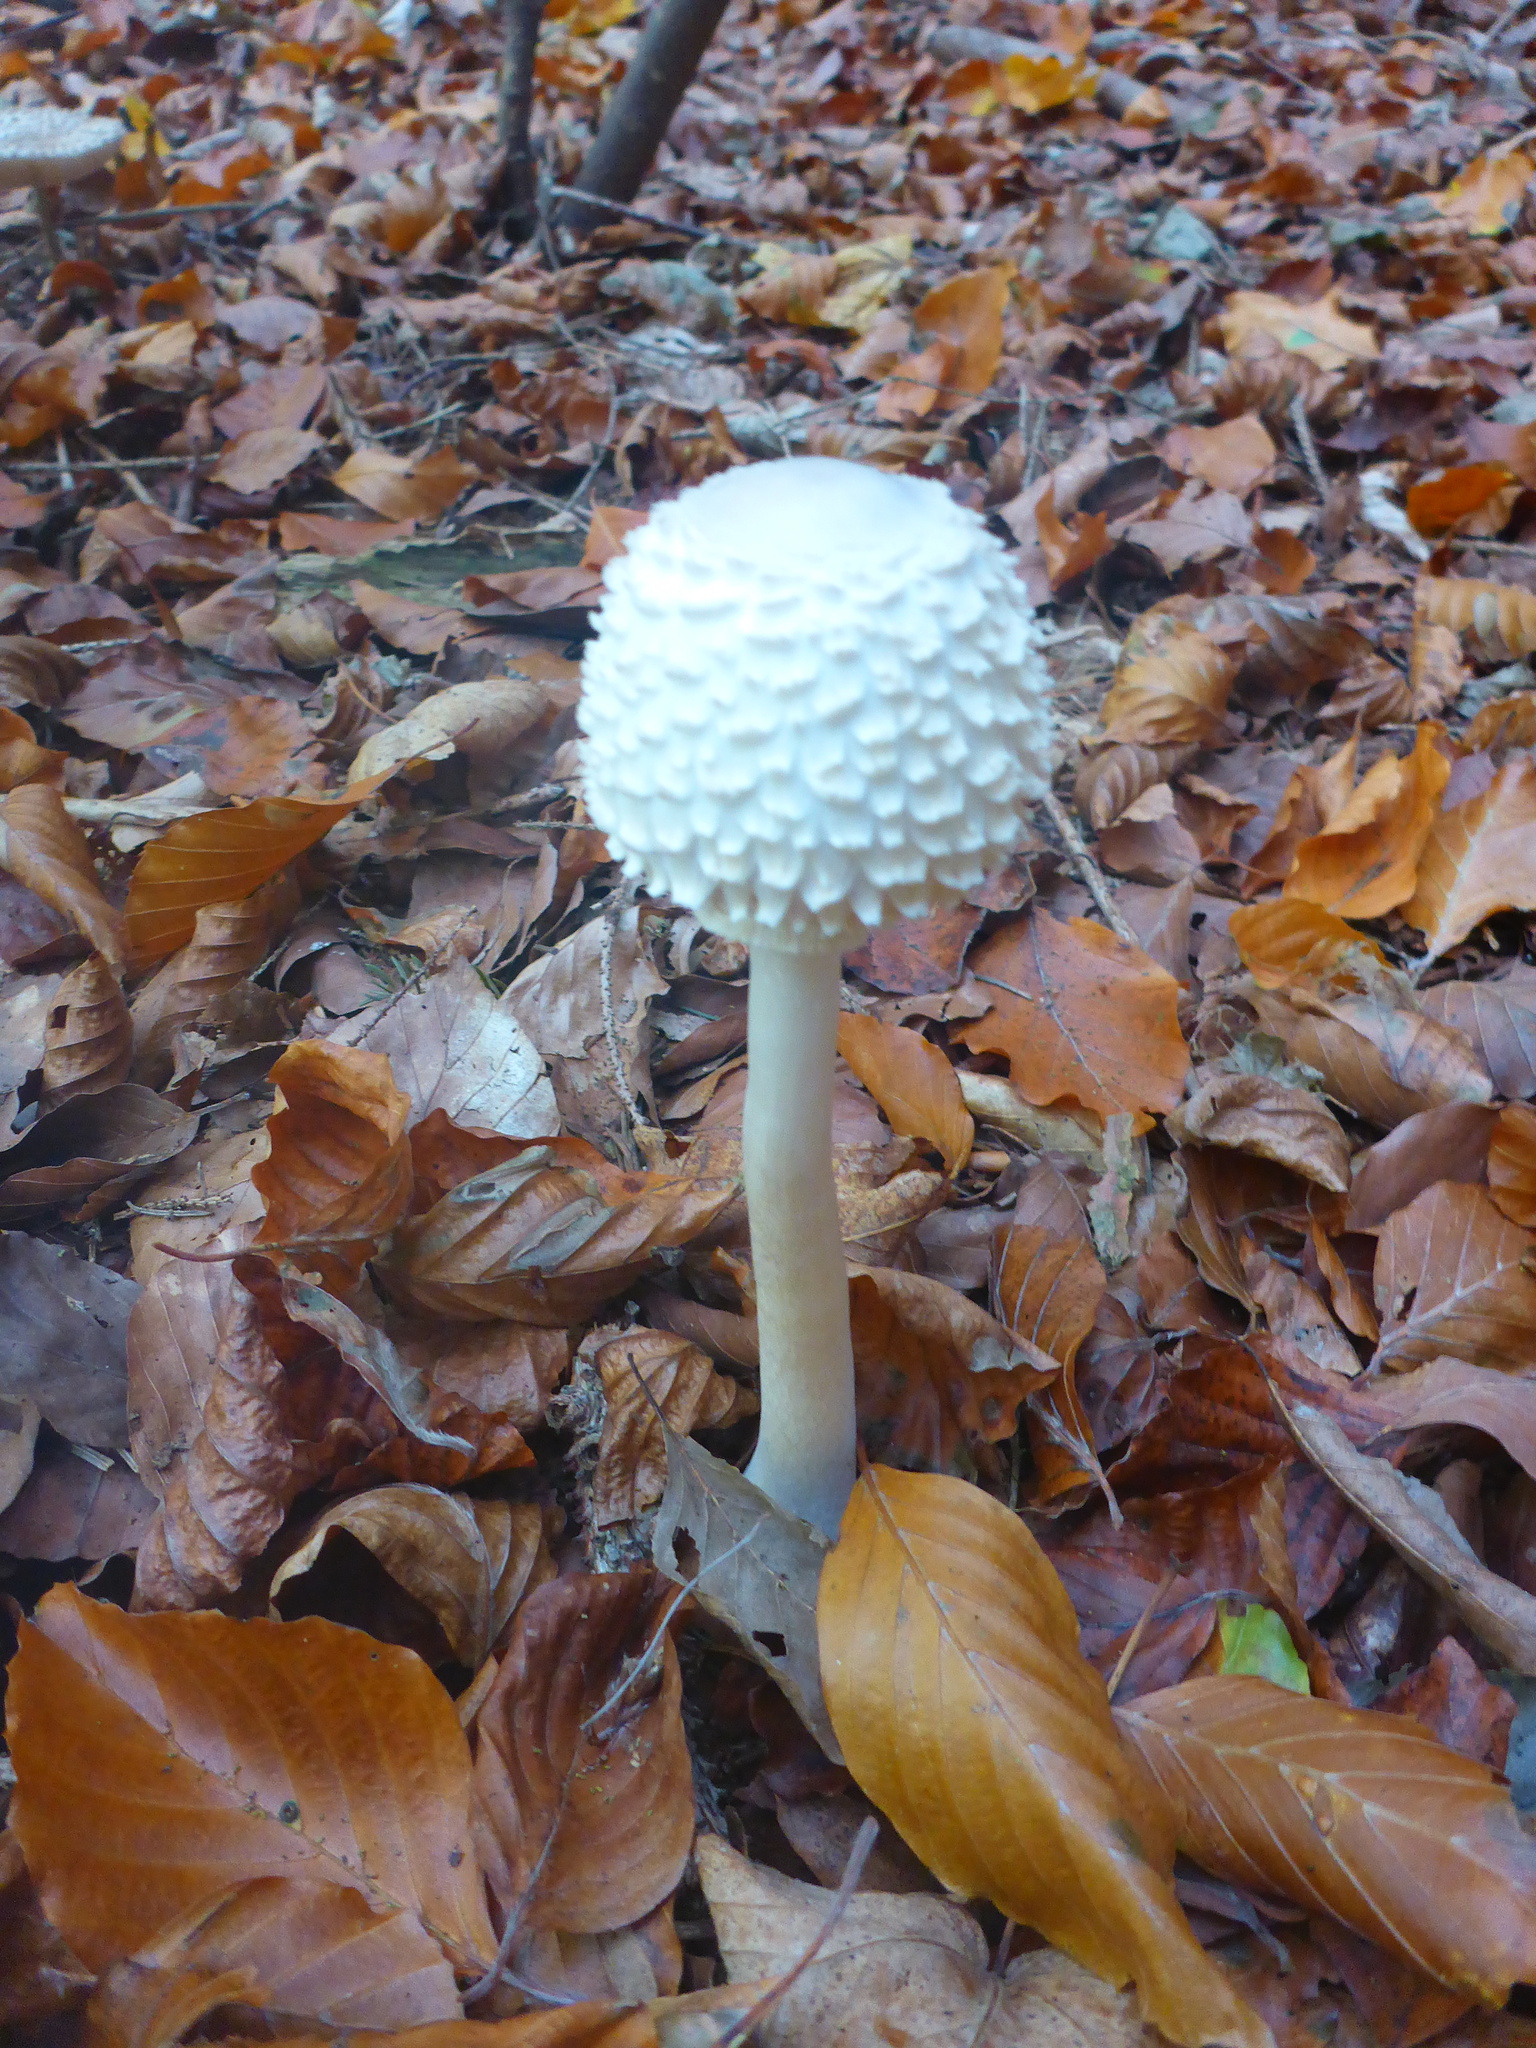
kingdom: Fungi
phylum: Basidiomycota
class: Agaricomycetes
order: Agaricales
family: Agaricaceae
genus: Leucoagaricus
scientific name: Leucoagaricus nympharum
